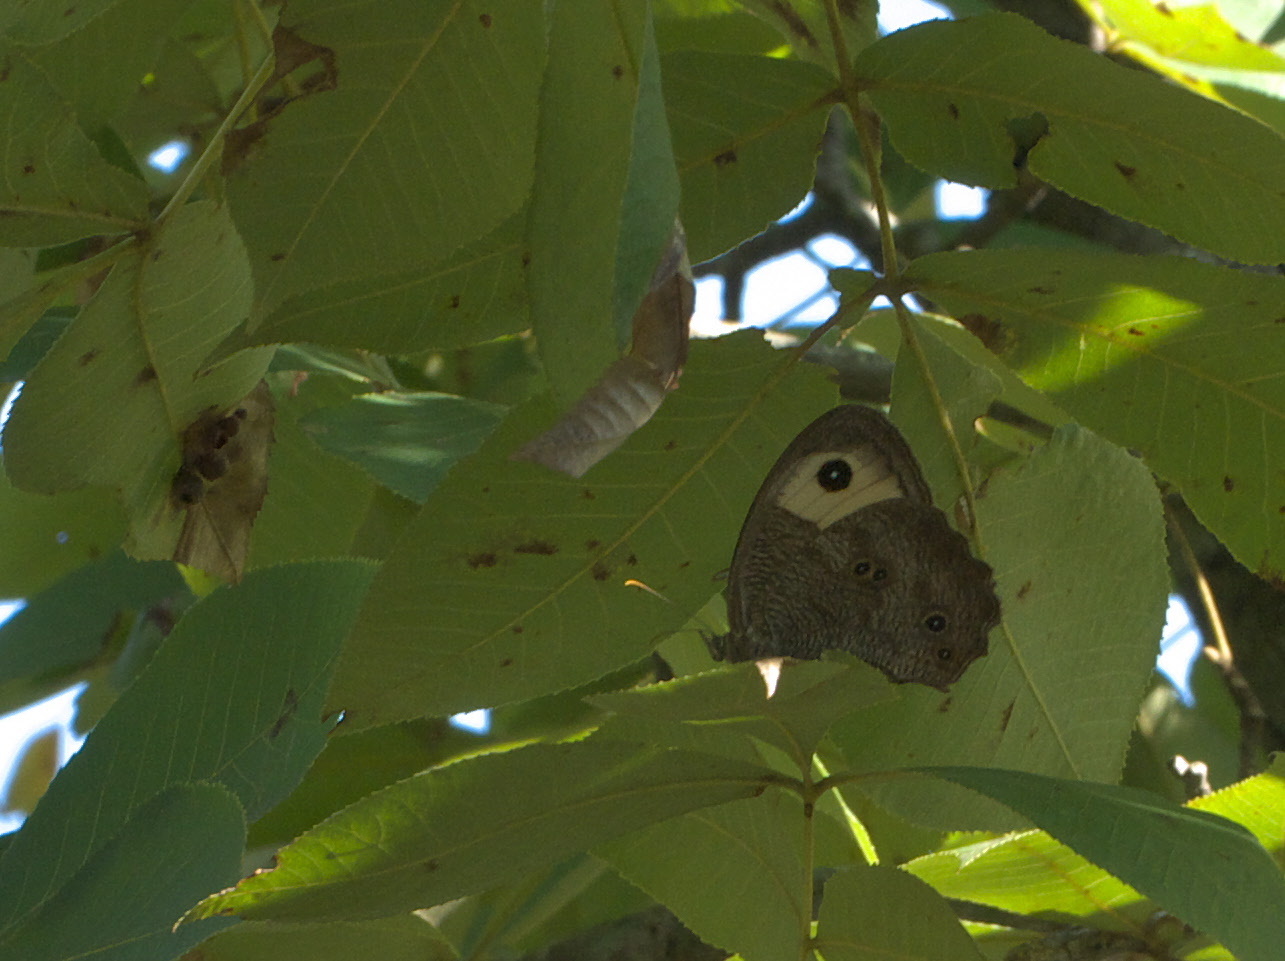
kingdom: Animalia
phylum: Arthropoda
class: Insecta
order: Lepidoptera
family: Nymphalidae
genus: Cercyonis
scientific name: Cercyonis pegala
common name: Common wood-nymph
